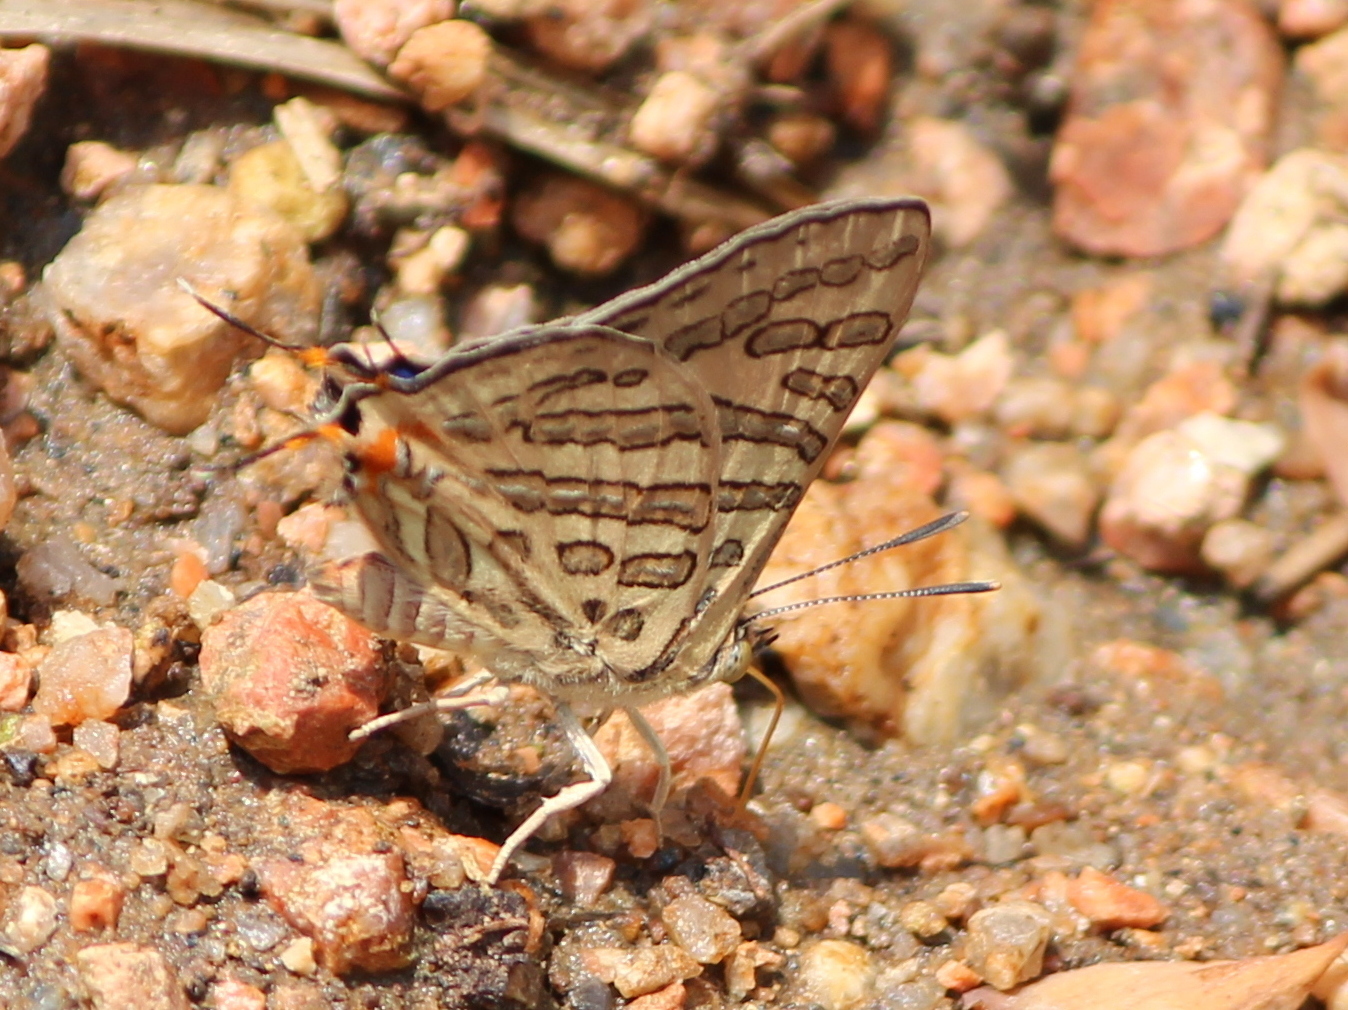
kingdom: Animalia
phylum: Arthropoda
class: Insecta
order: Lepidoptera
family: Lycaenidae
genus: Cigaritis
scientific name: Cigaritis
